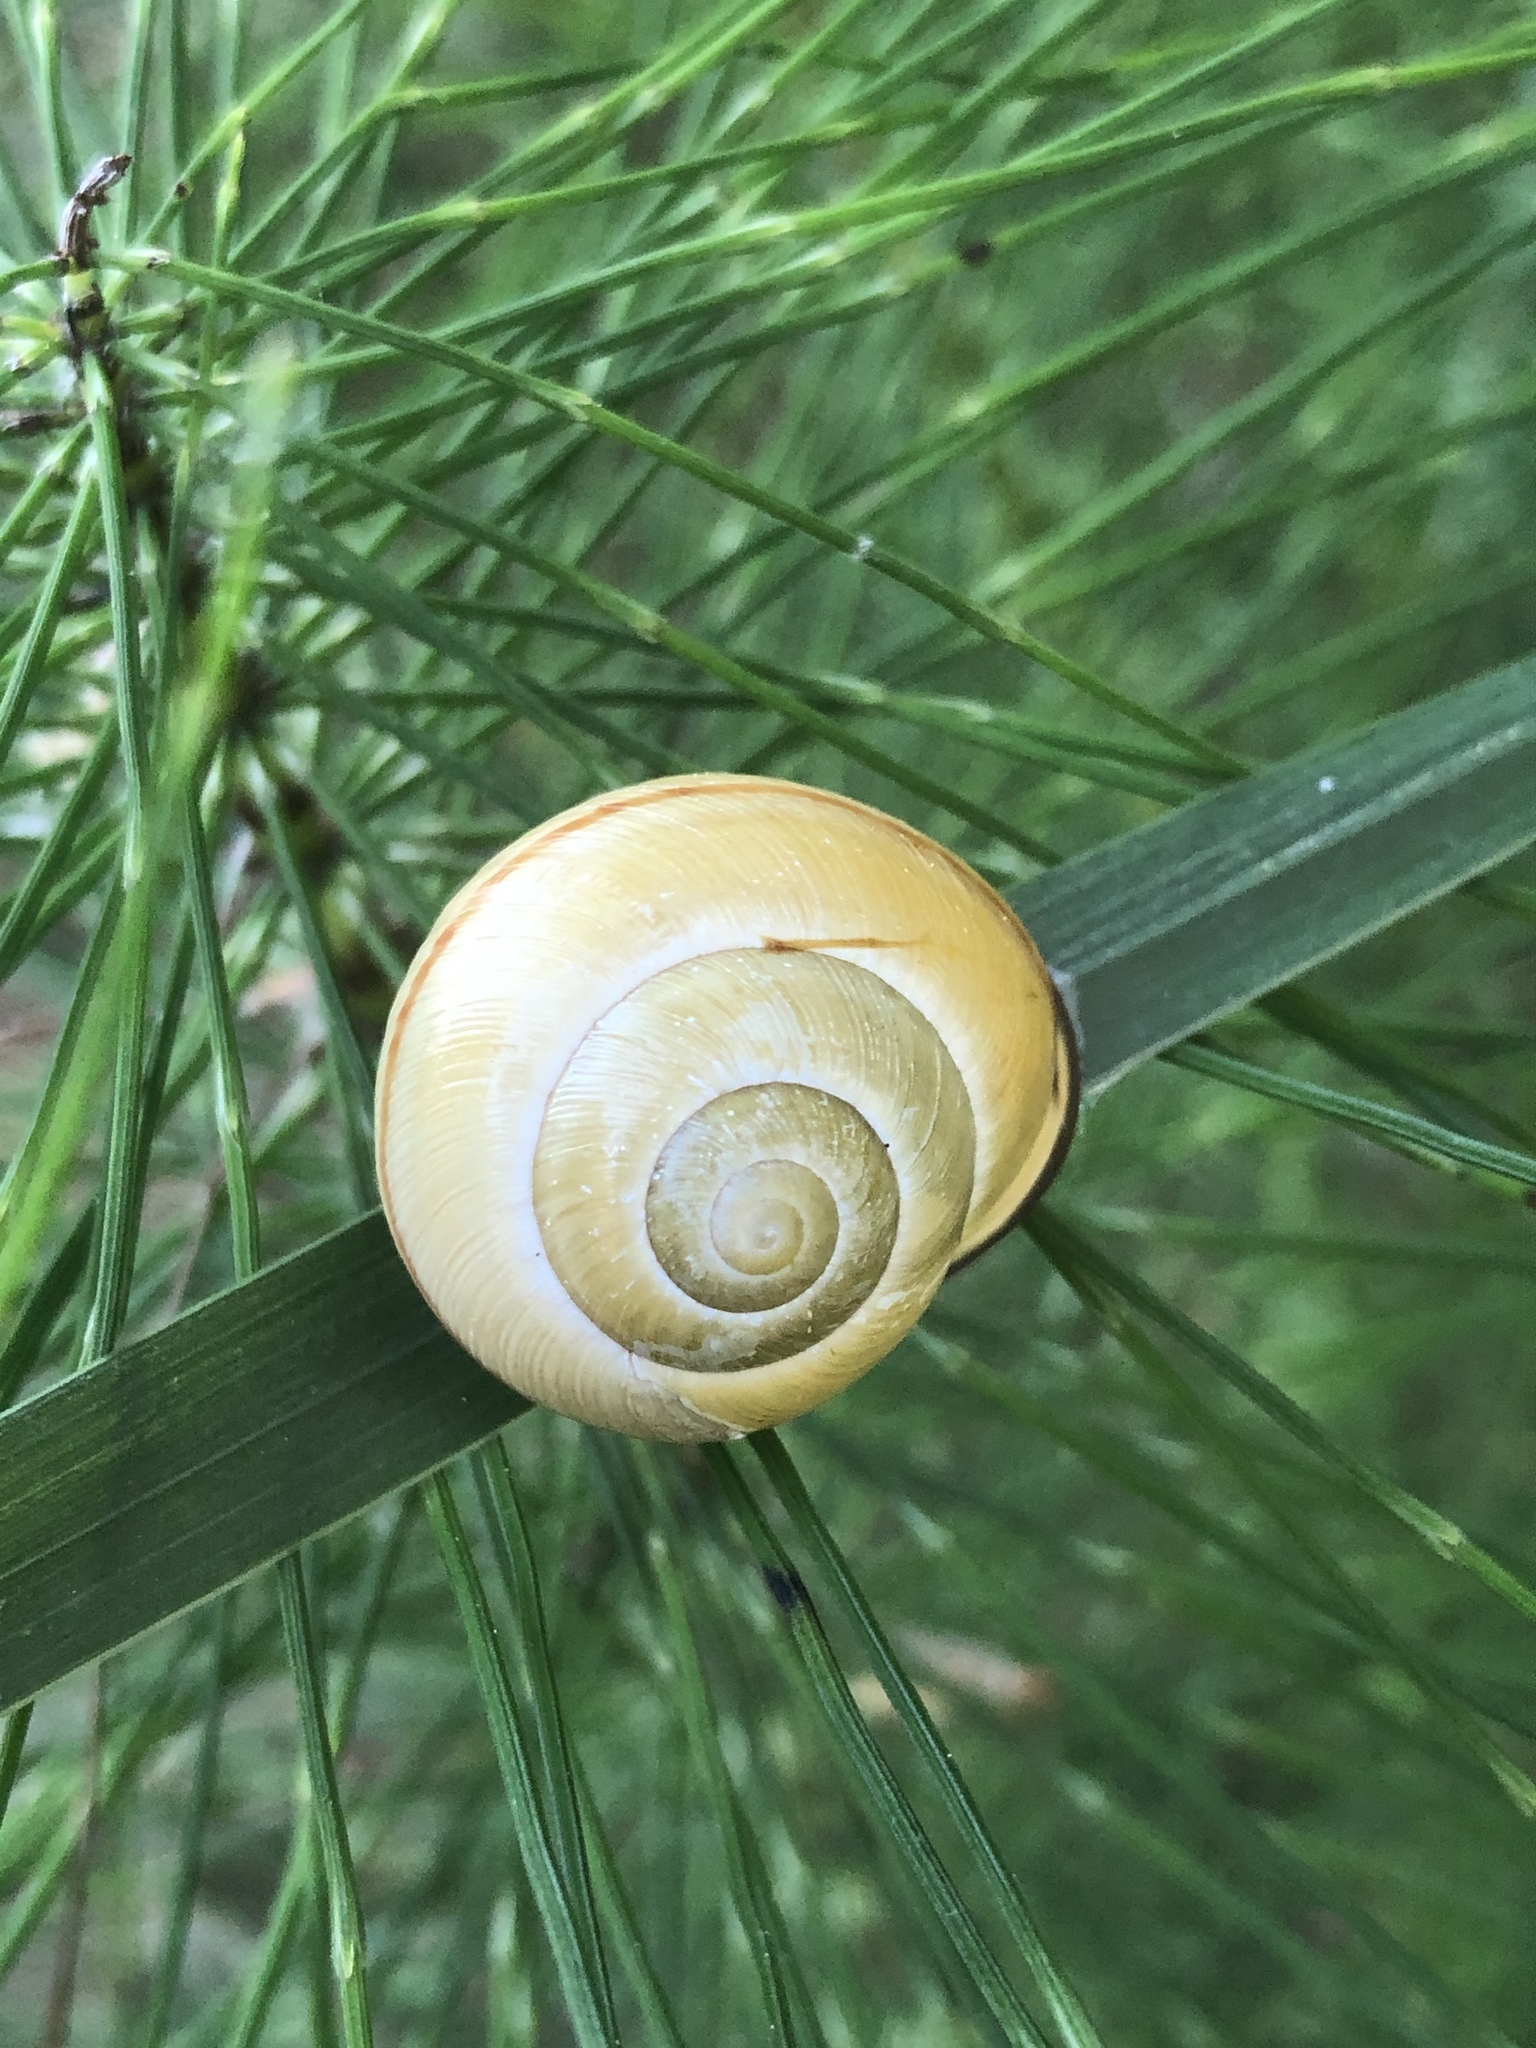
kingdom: Animalia
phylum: Mollusca
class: Gastropoda
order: Stylommatophora
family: Helicidae
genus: Cepaea
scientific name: Cepaea nemoralis
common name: Grovesnail
